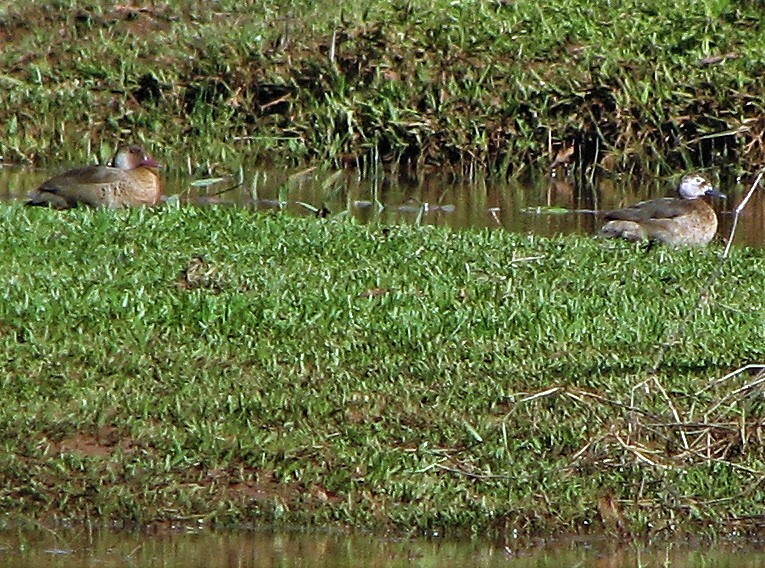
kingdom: Animalia
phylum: Chordata
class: Aves
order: Anseriformes
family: Anatidae
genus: Amazonetta
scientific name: Amazonetta brasiliensis
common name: Brazilian teal
